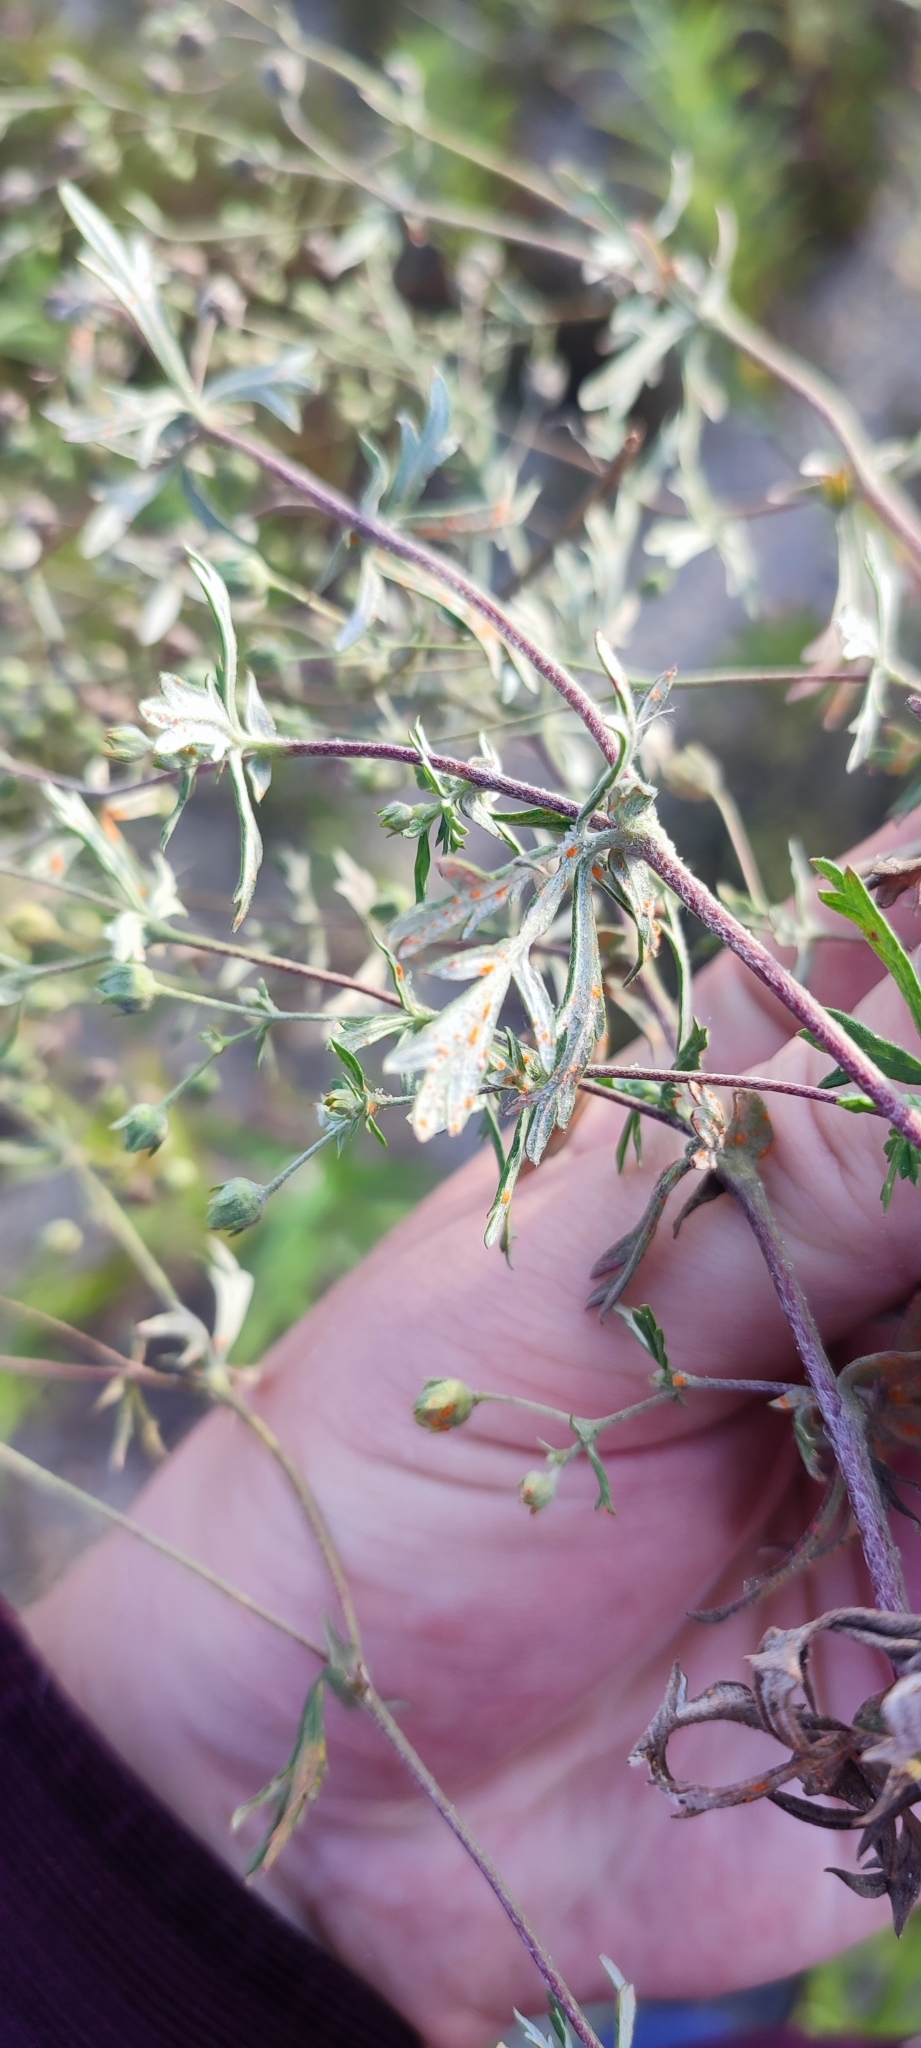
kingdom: Plantae
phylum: Tracheophyta
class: Magnoliopsida
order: Rosales
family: Rosaceae
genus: Potentilla
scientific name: Potentilla argentea
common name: Hoary cinquefoil
